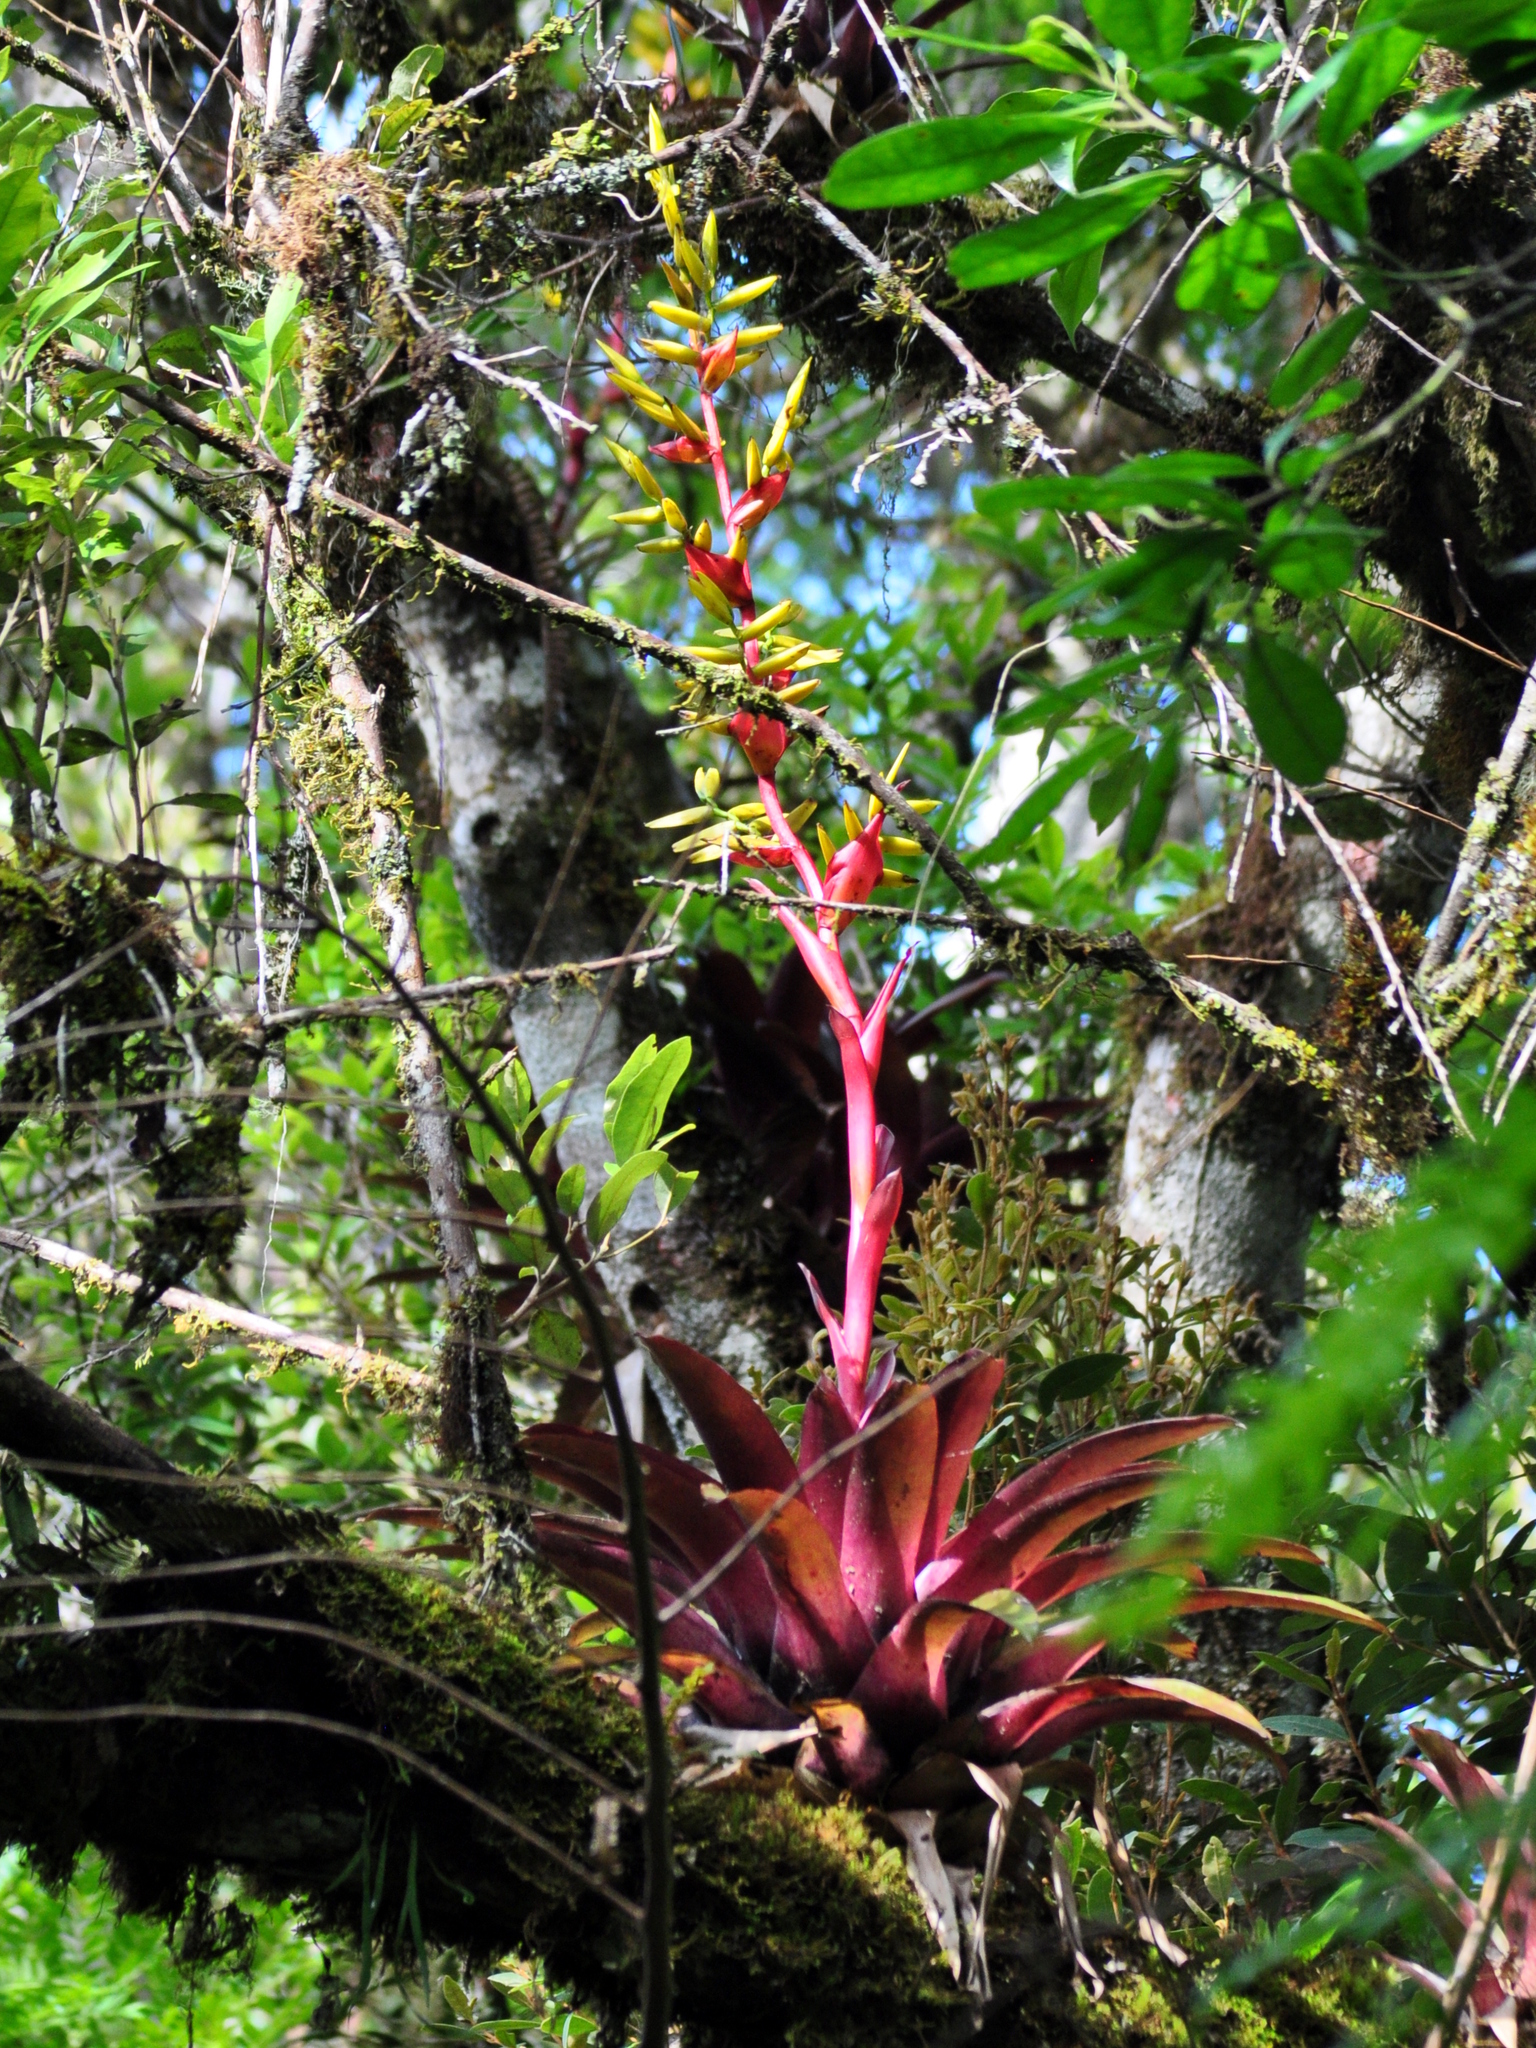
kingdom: Plantae
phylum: Tracheophyta
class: Liliopsida
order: Poales
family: Bromeliaceae
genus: Vriesea
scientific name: Vriesea friburgensis
